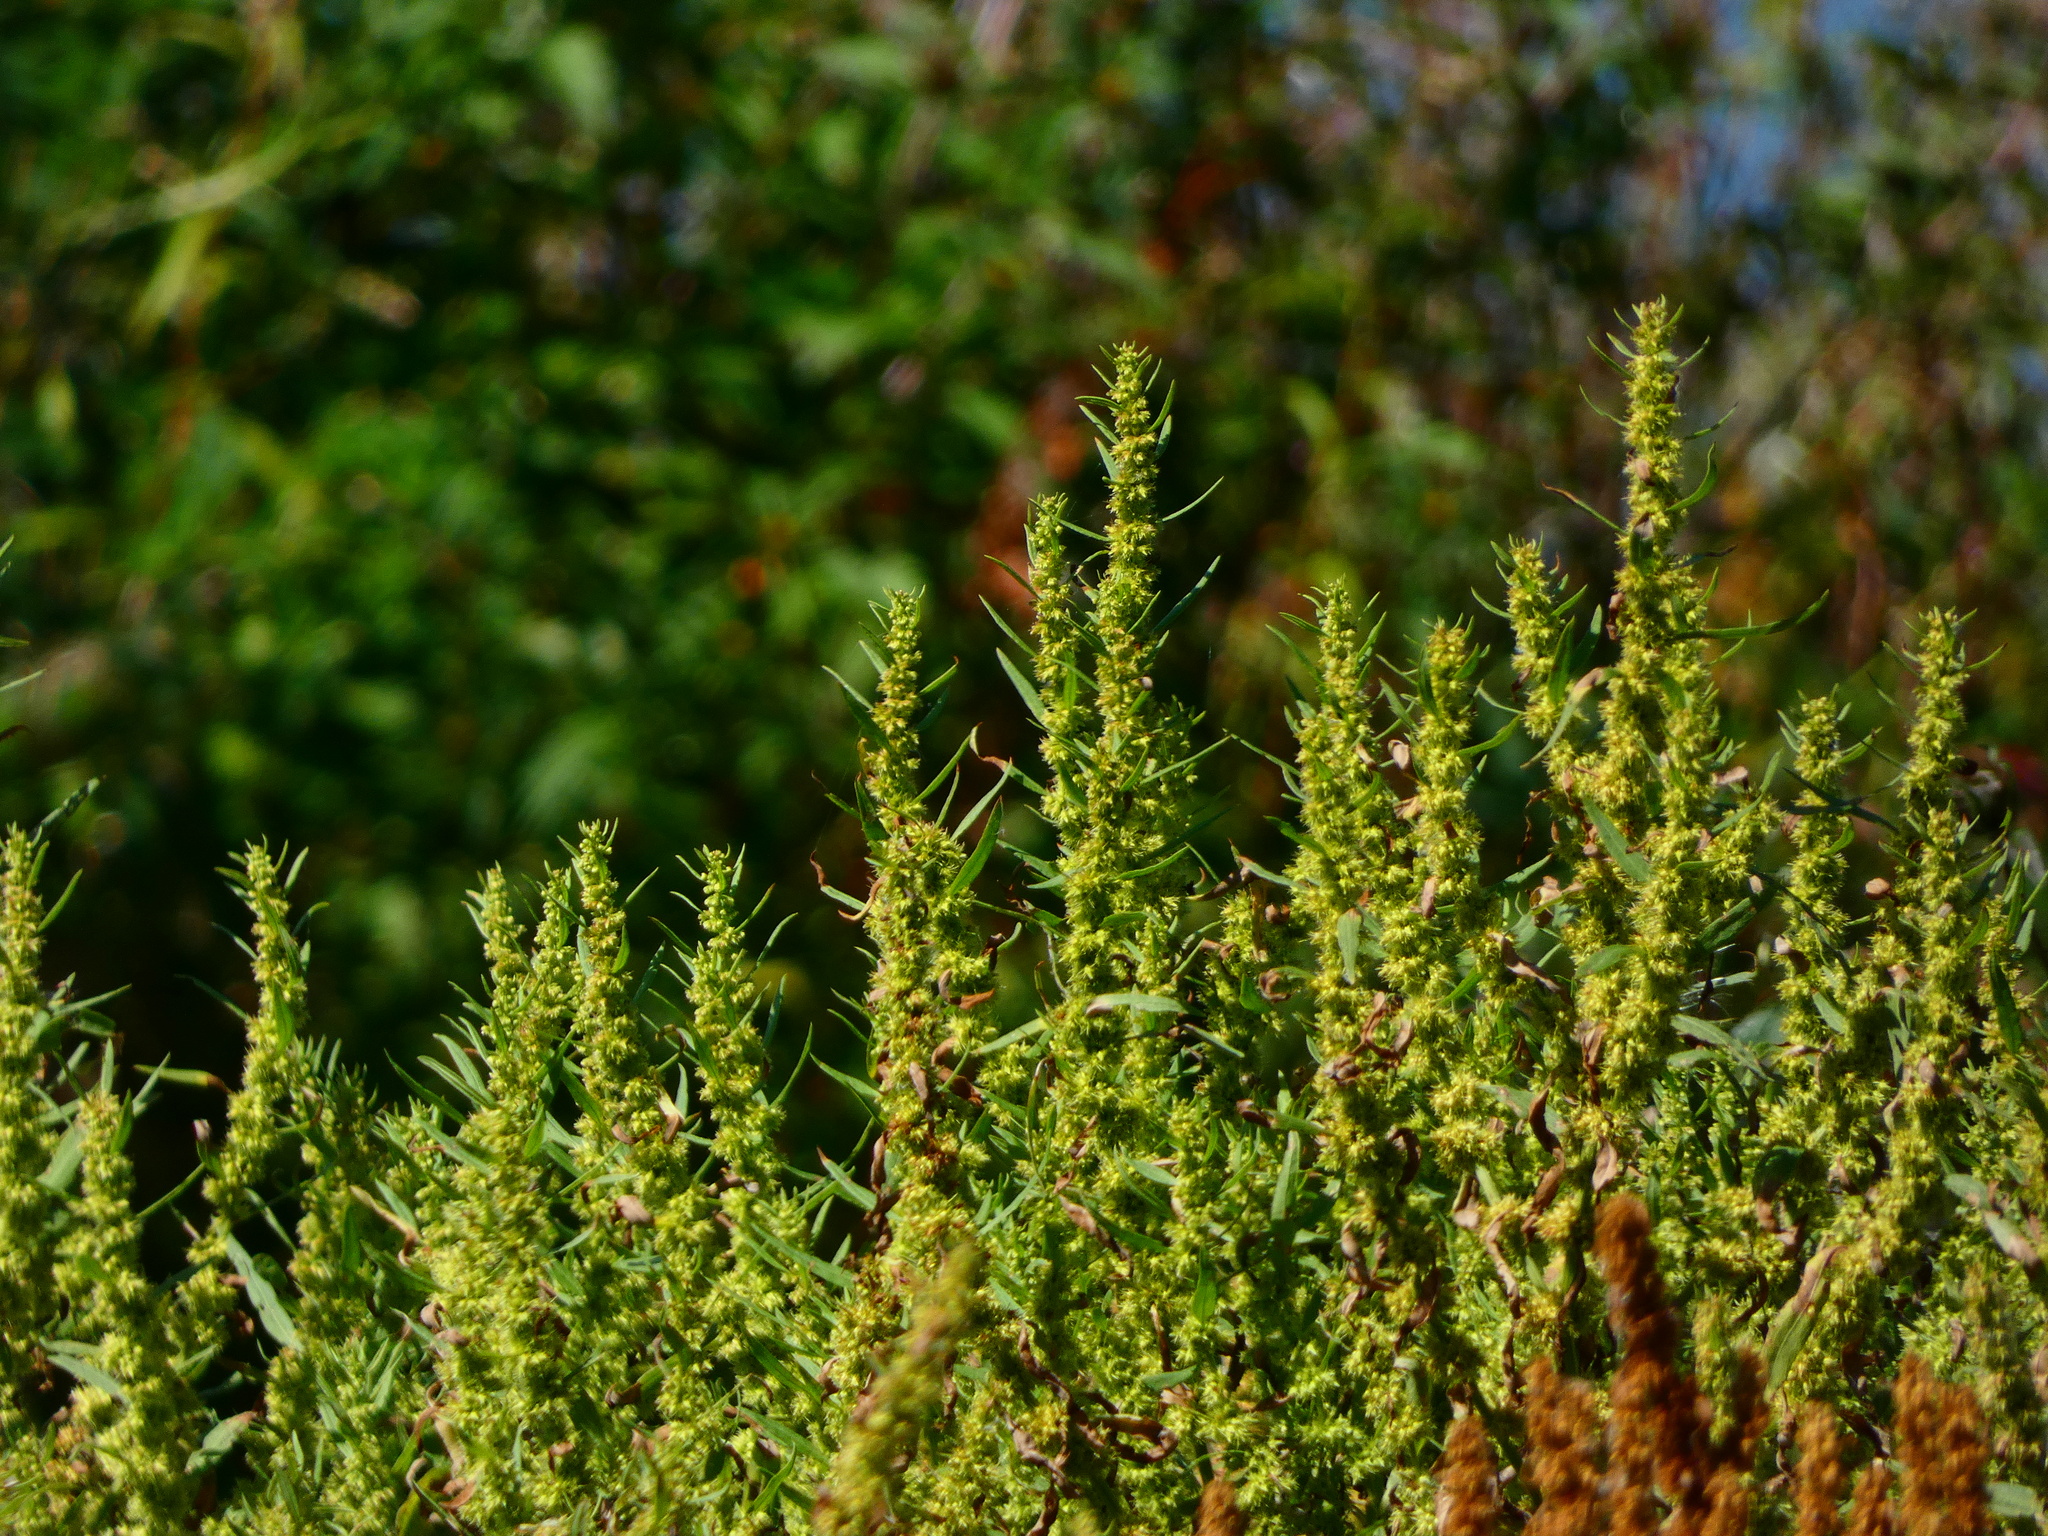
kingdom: Plantae
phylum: Tracheophyta
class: Magnoliopsida
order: Caryophyllales
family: Polygonaceae
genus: Rumex
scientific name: Rumex maritimus
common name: Golden dock
